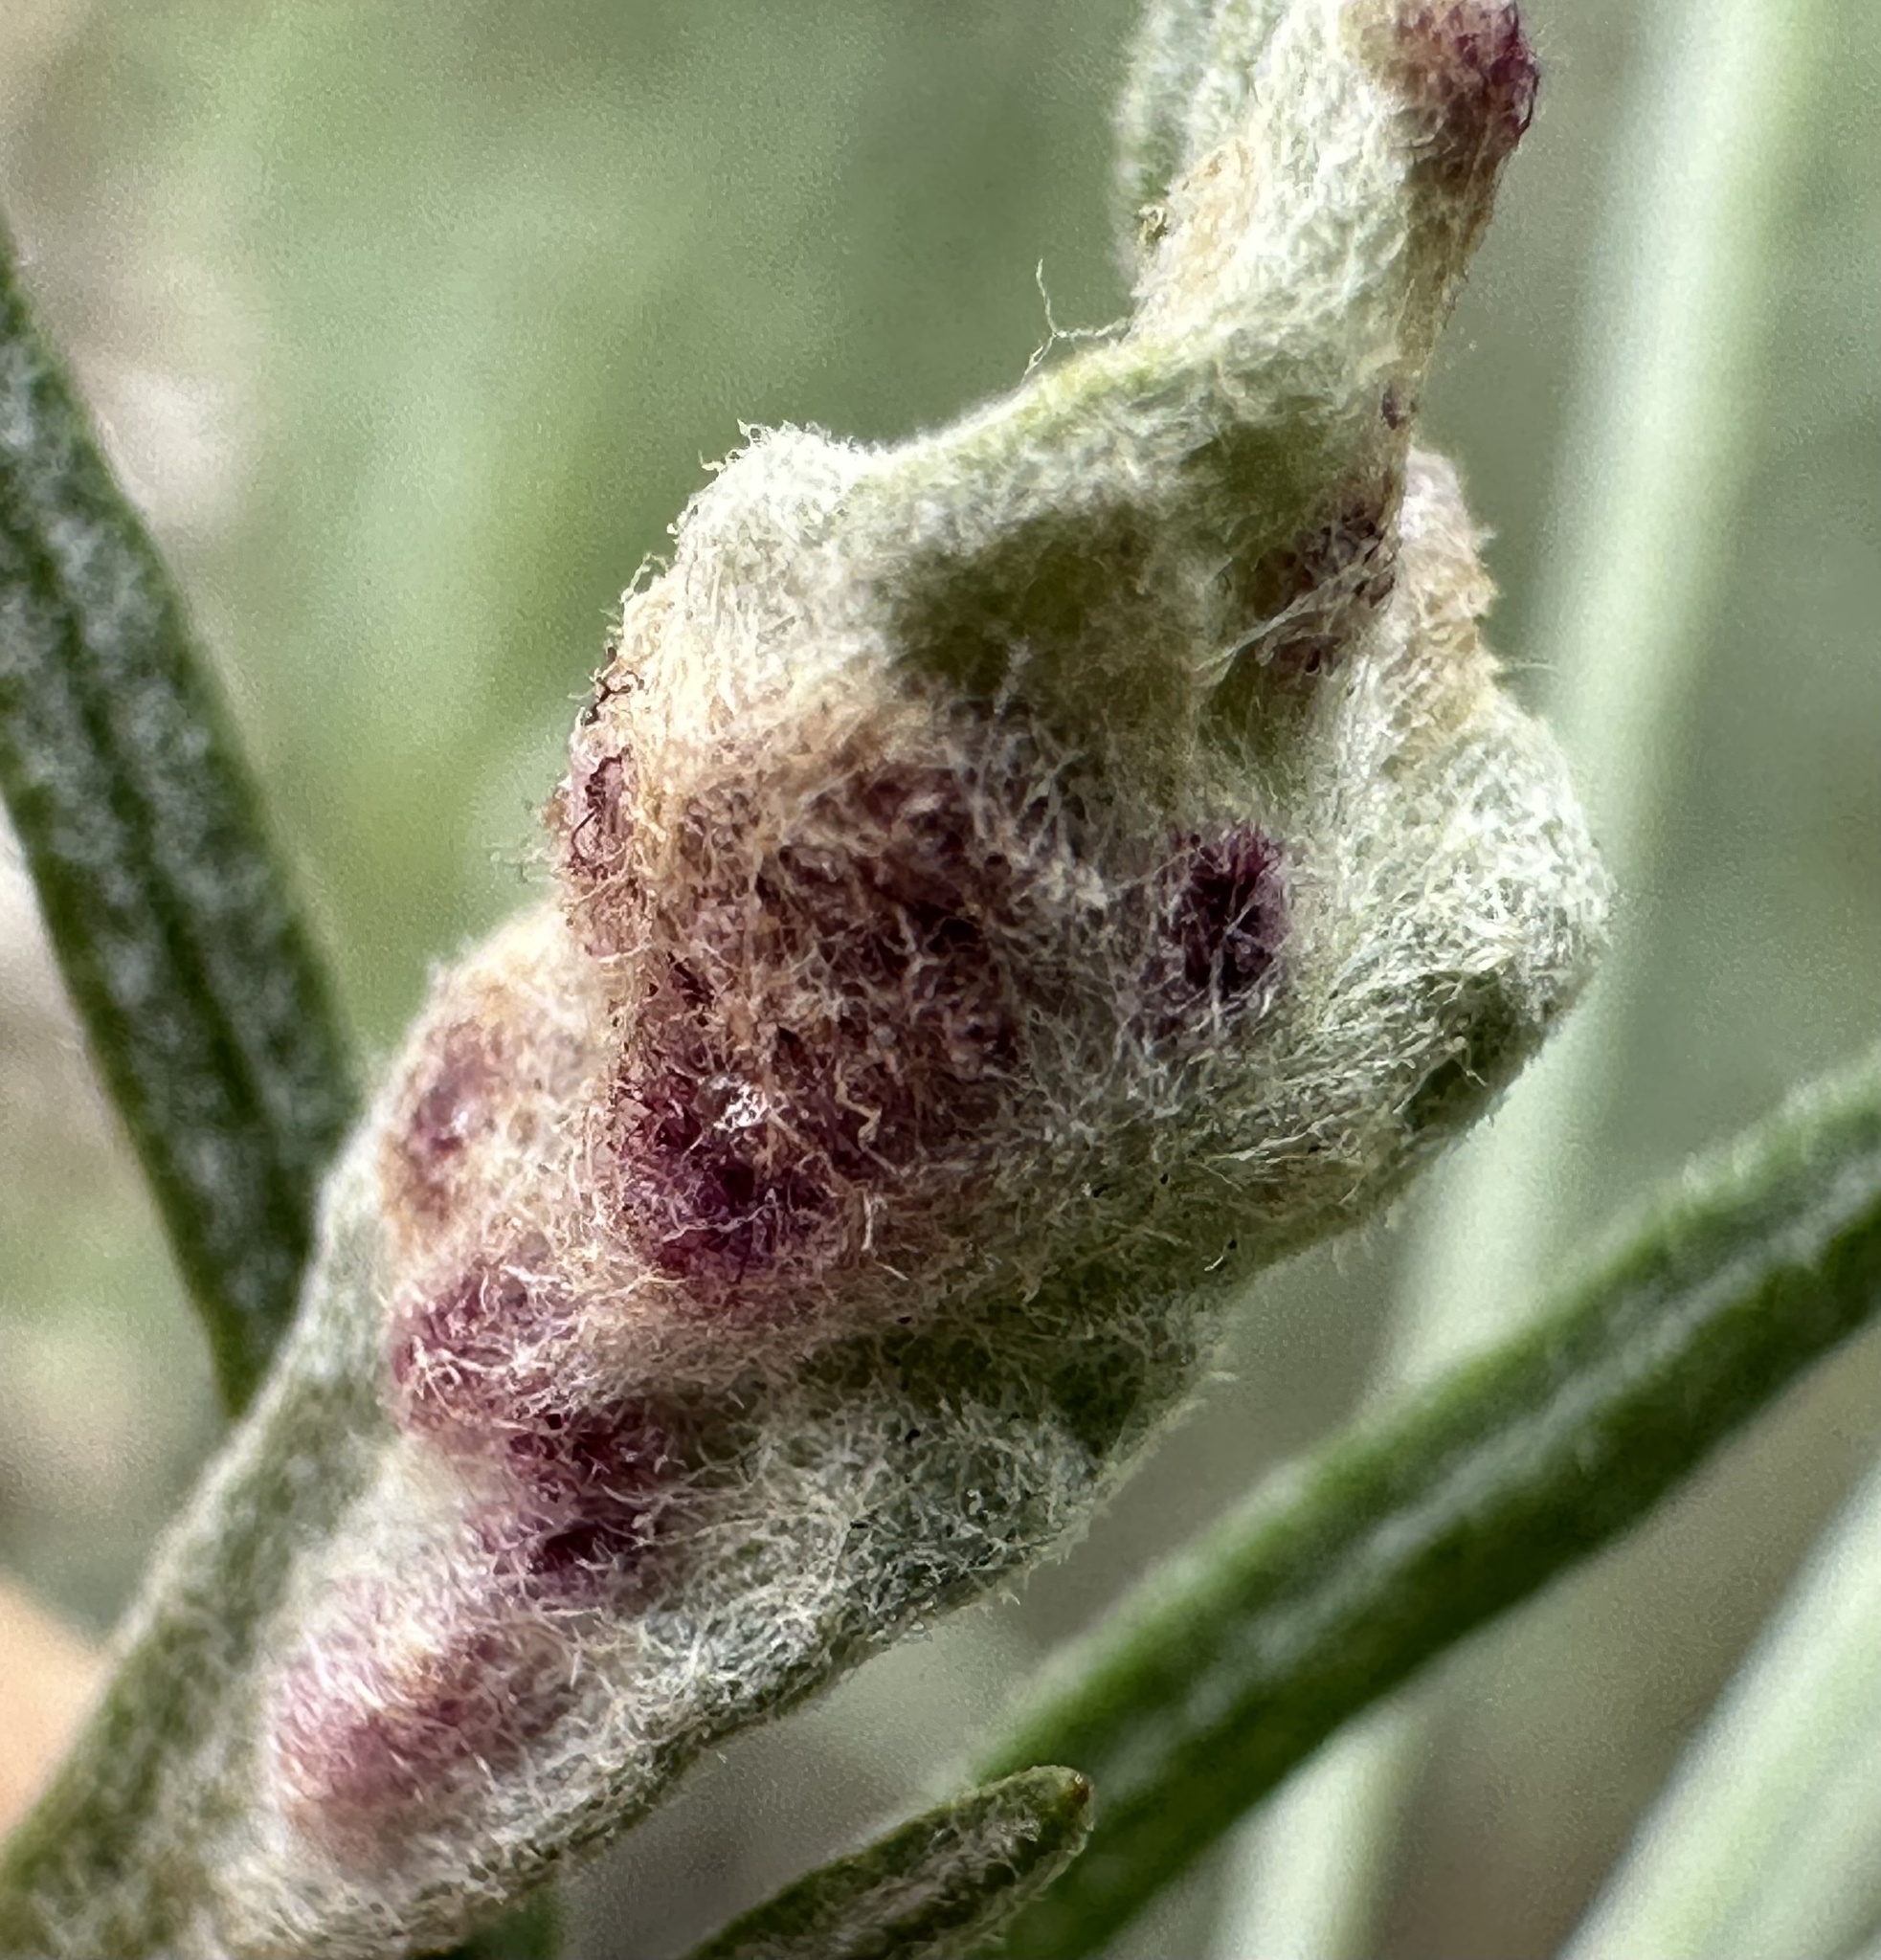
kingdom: Animalia
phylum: Arthropoda
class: Arachnida
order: Trombidiformes
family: Eriophyidae
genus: Aceria
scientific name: Aceria
